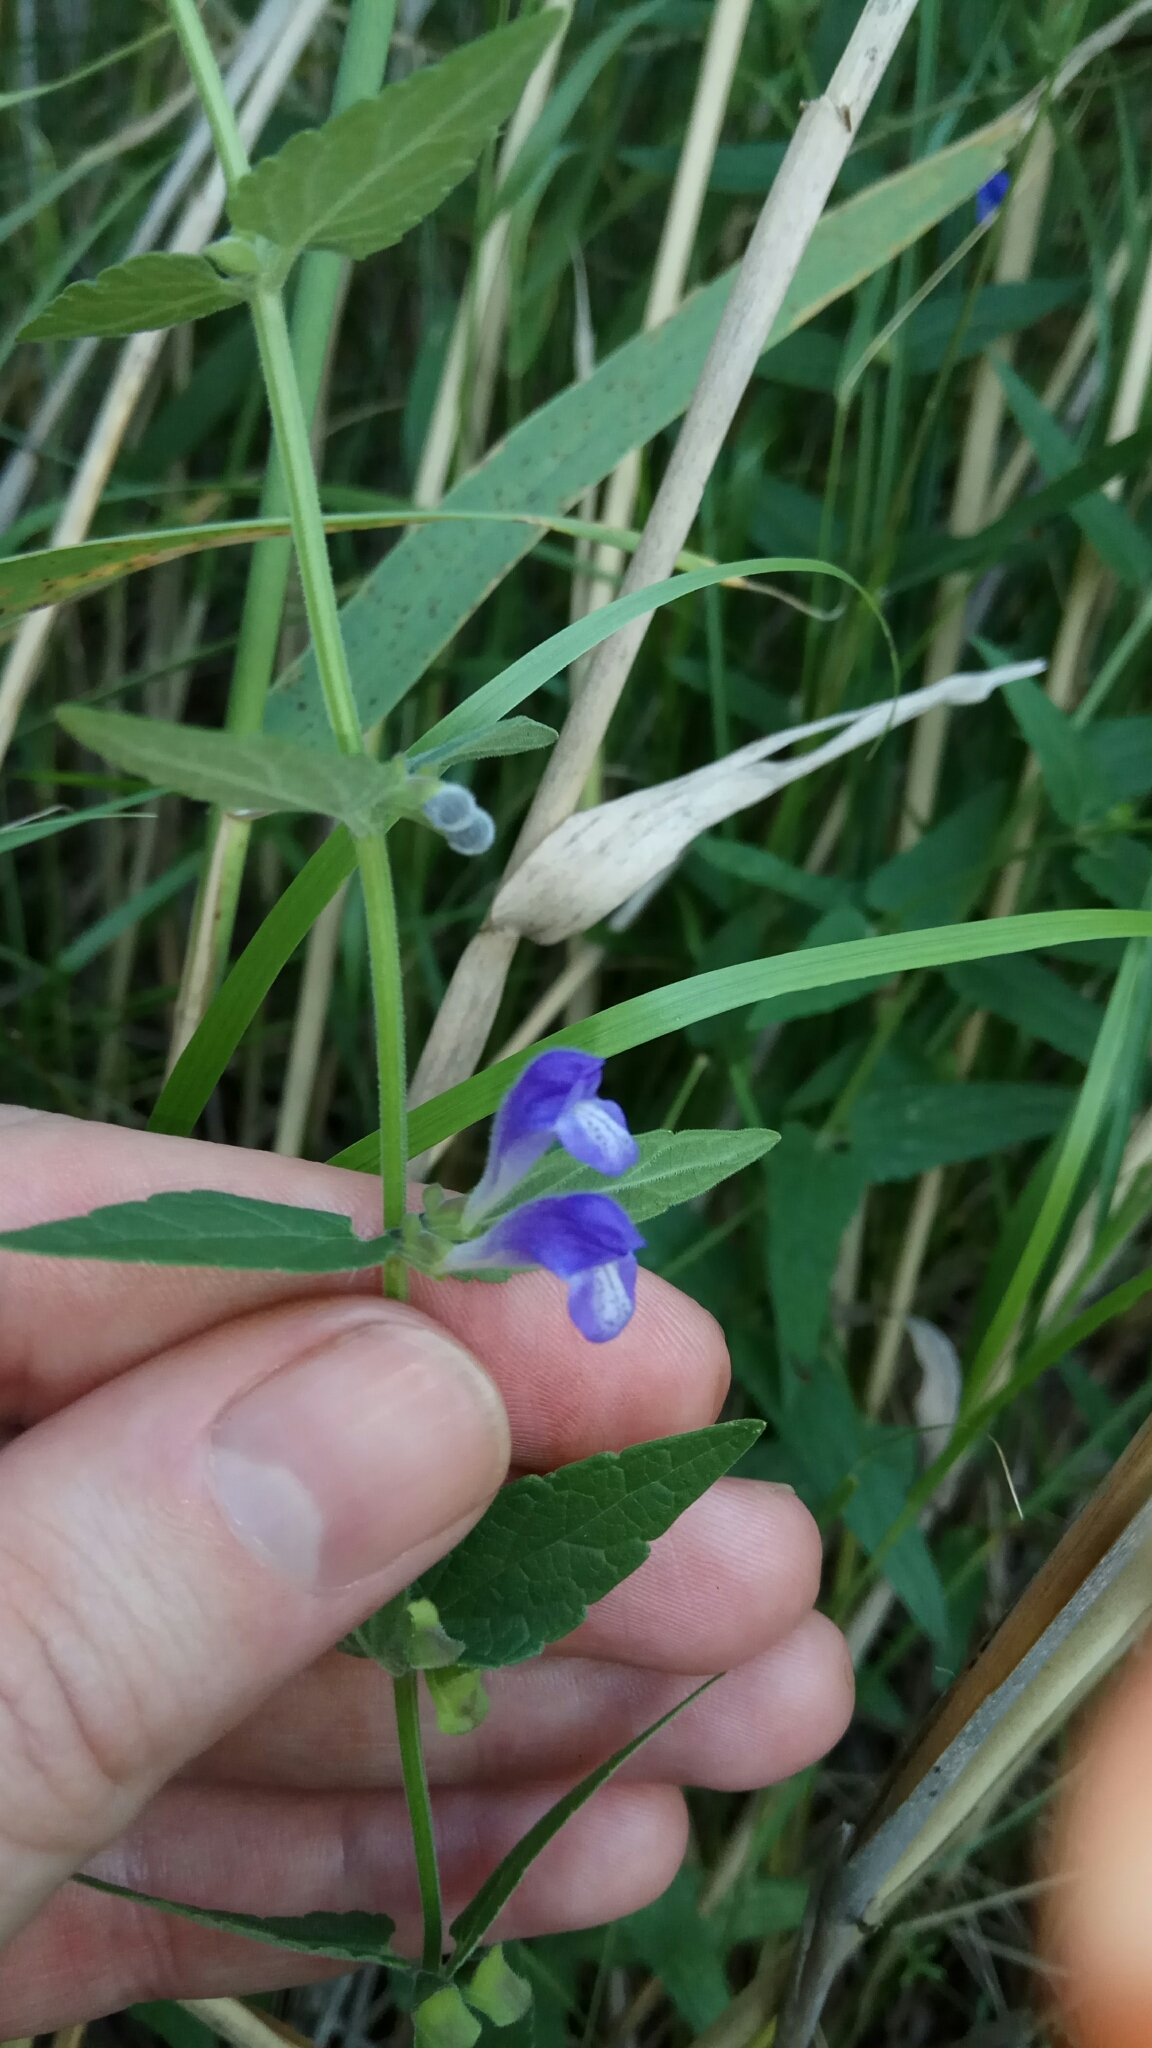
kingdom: Plantae
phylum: Tracheophyta
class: Magnoliopsida
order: Lamiales
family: Lamiaceae
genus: Scutellaria
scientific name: Scutellaria galericulata
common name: Skullcap
